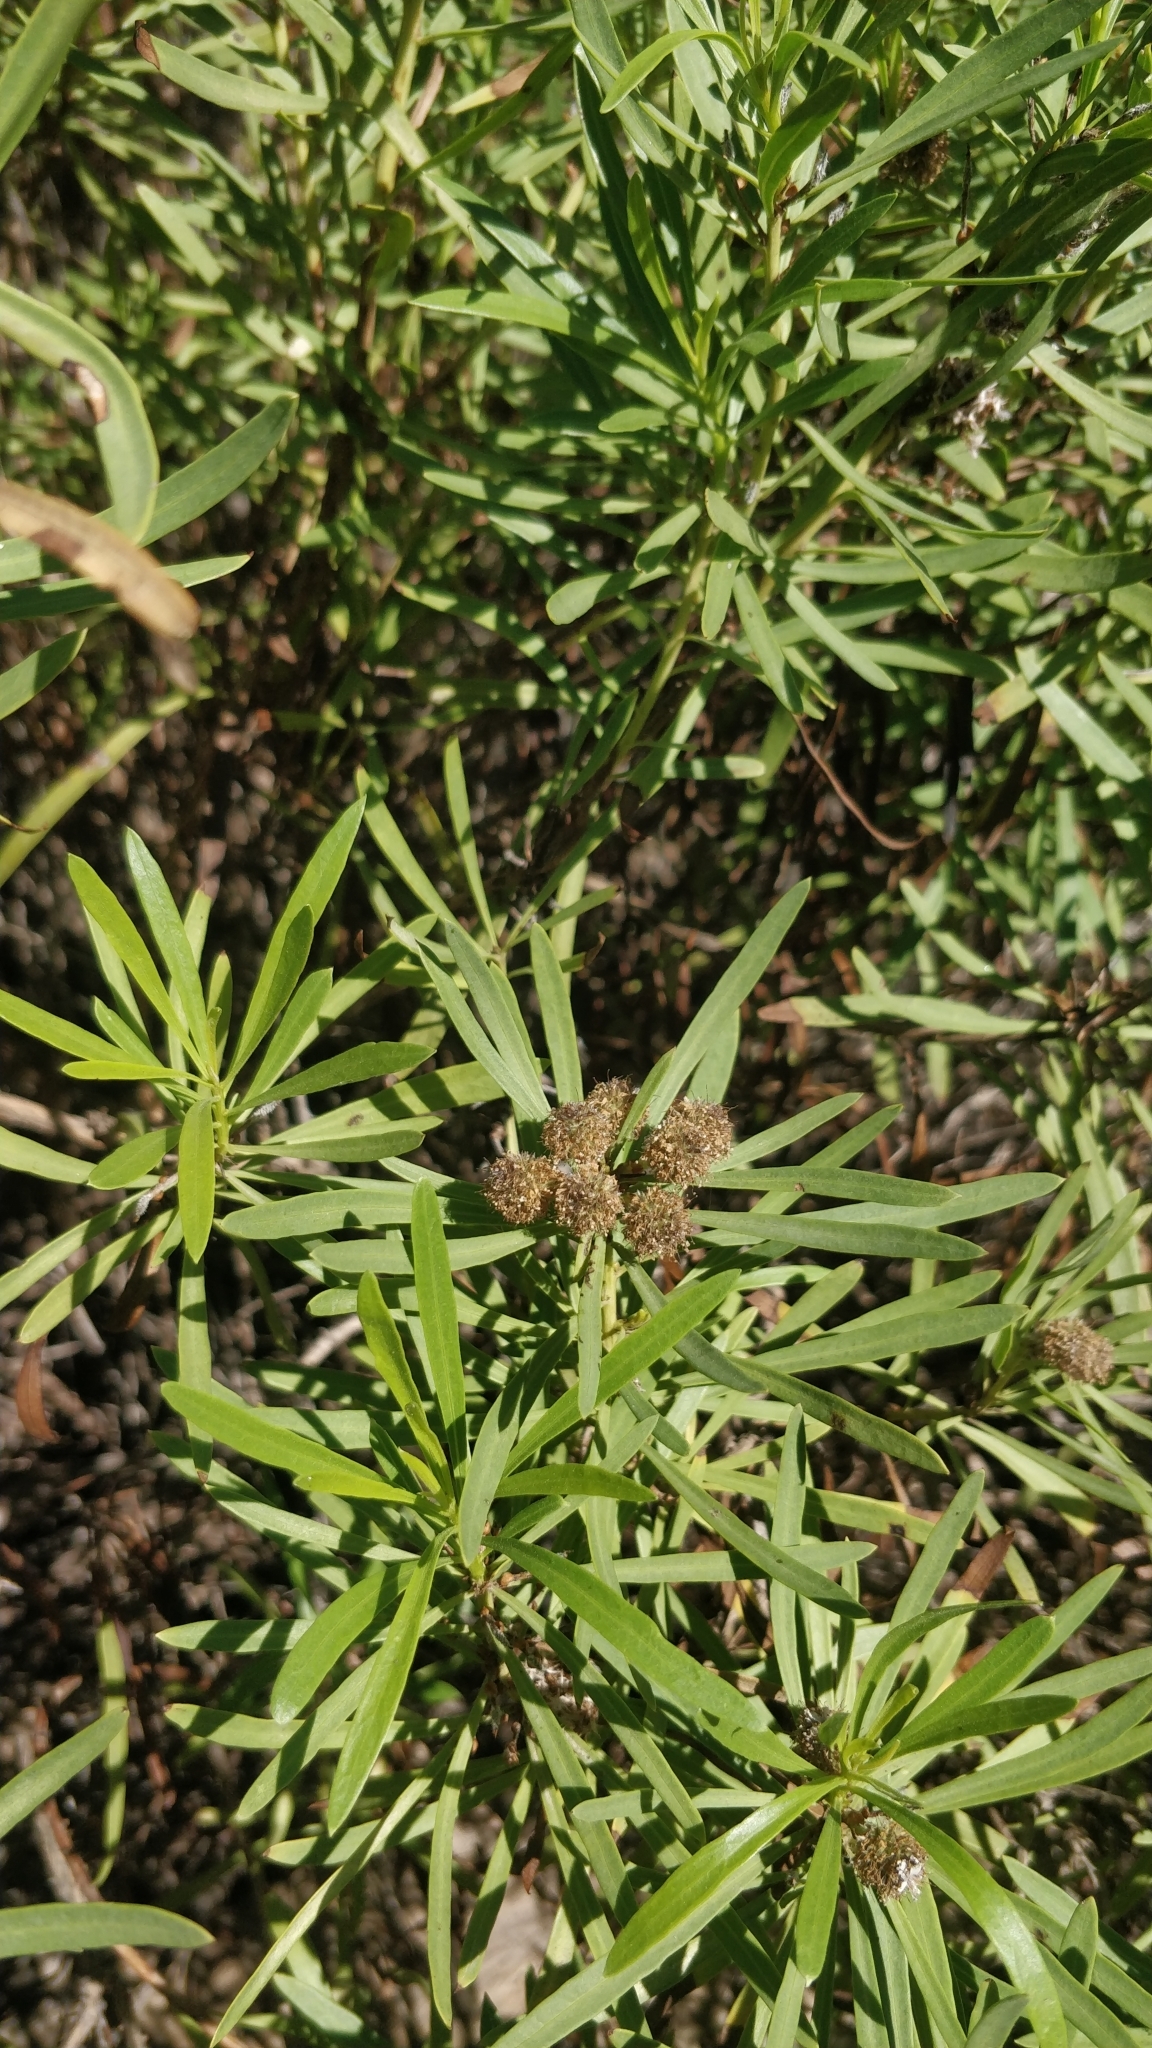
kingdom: Plantae
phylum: Tracheophyta
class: Magnoliopsida
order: Lamiales
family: Plantaginaceae
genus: Globularia
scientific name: Globularia salicina
